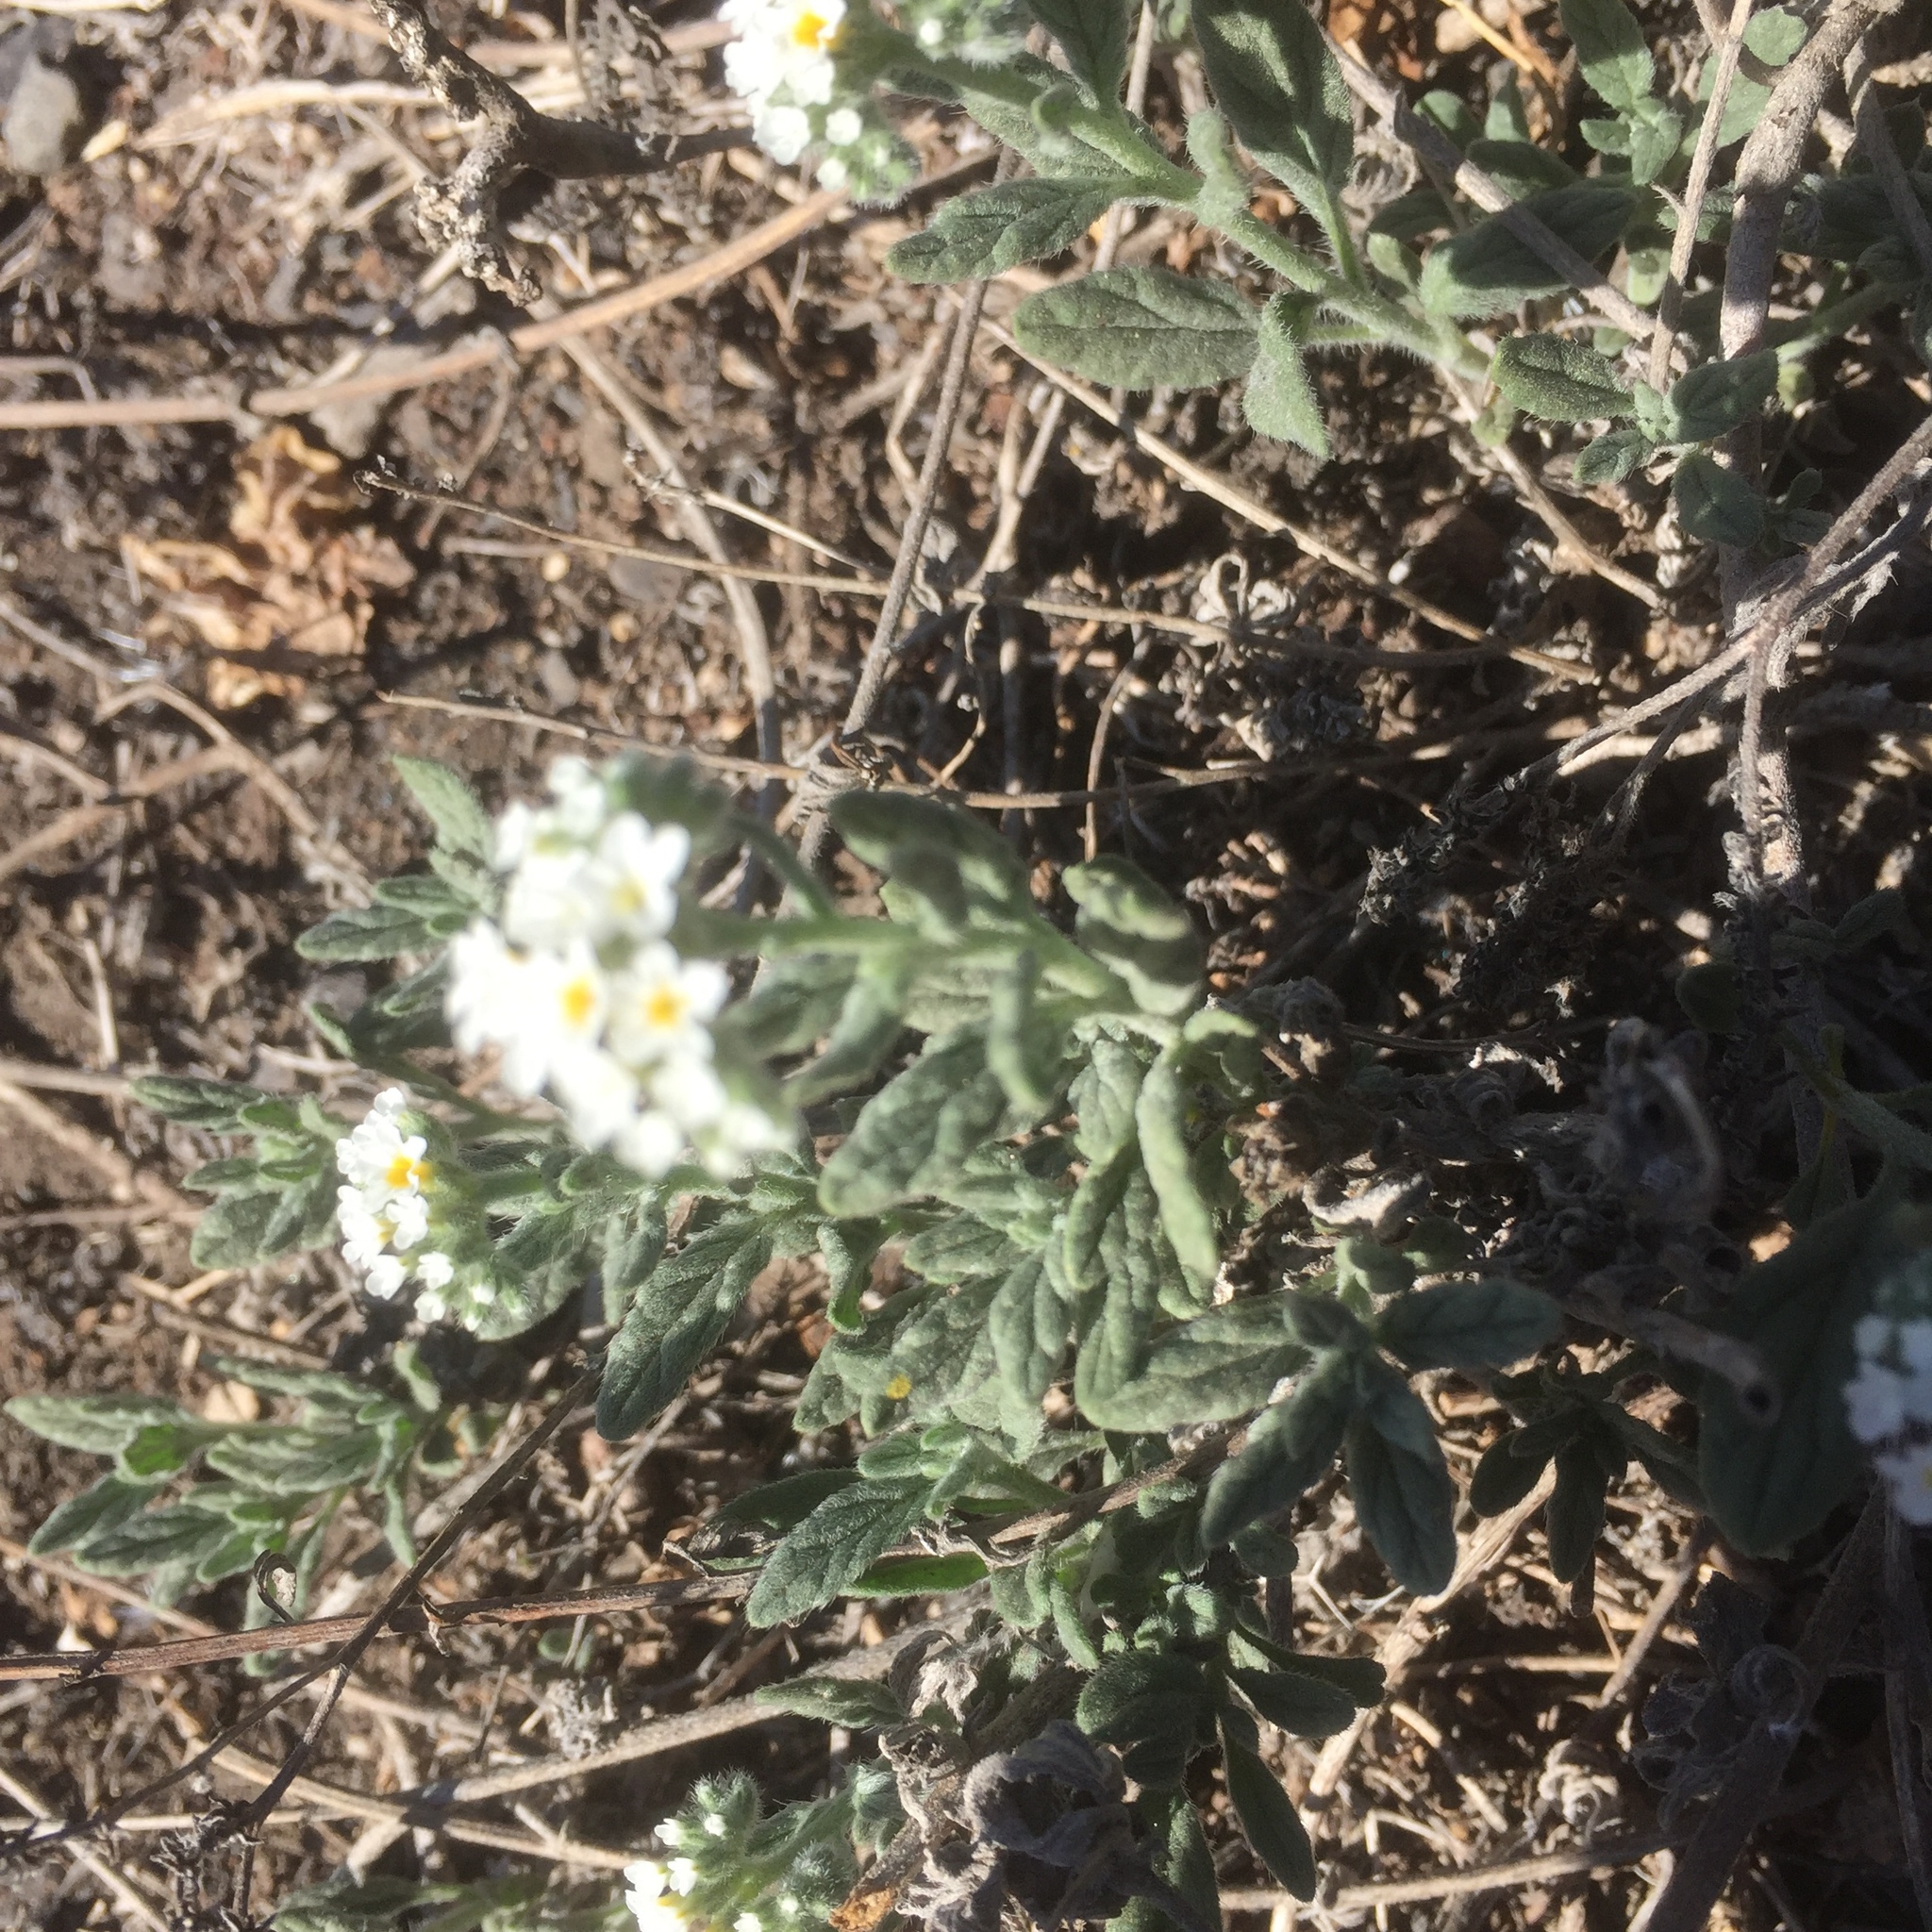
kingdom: Plantae
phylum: Tracheophyta
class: Magnoliopsida
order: Boraginales
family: Heliotropiaceae
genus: Heliotropium
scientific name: Heliotropium europaeum
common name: European heliotrope
